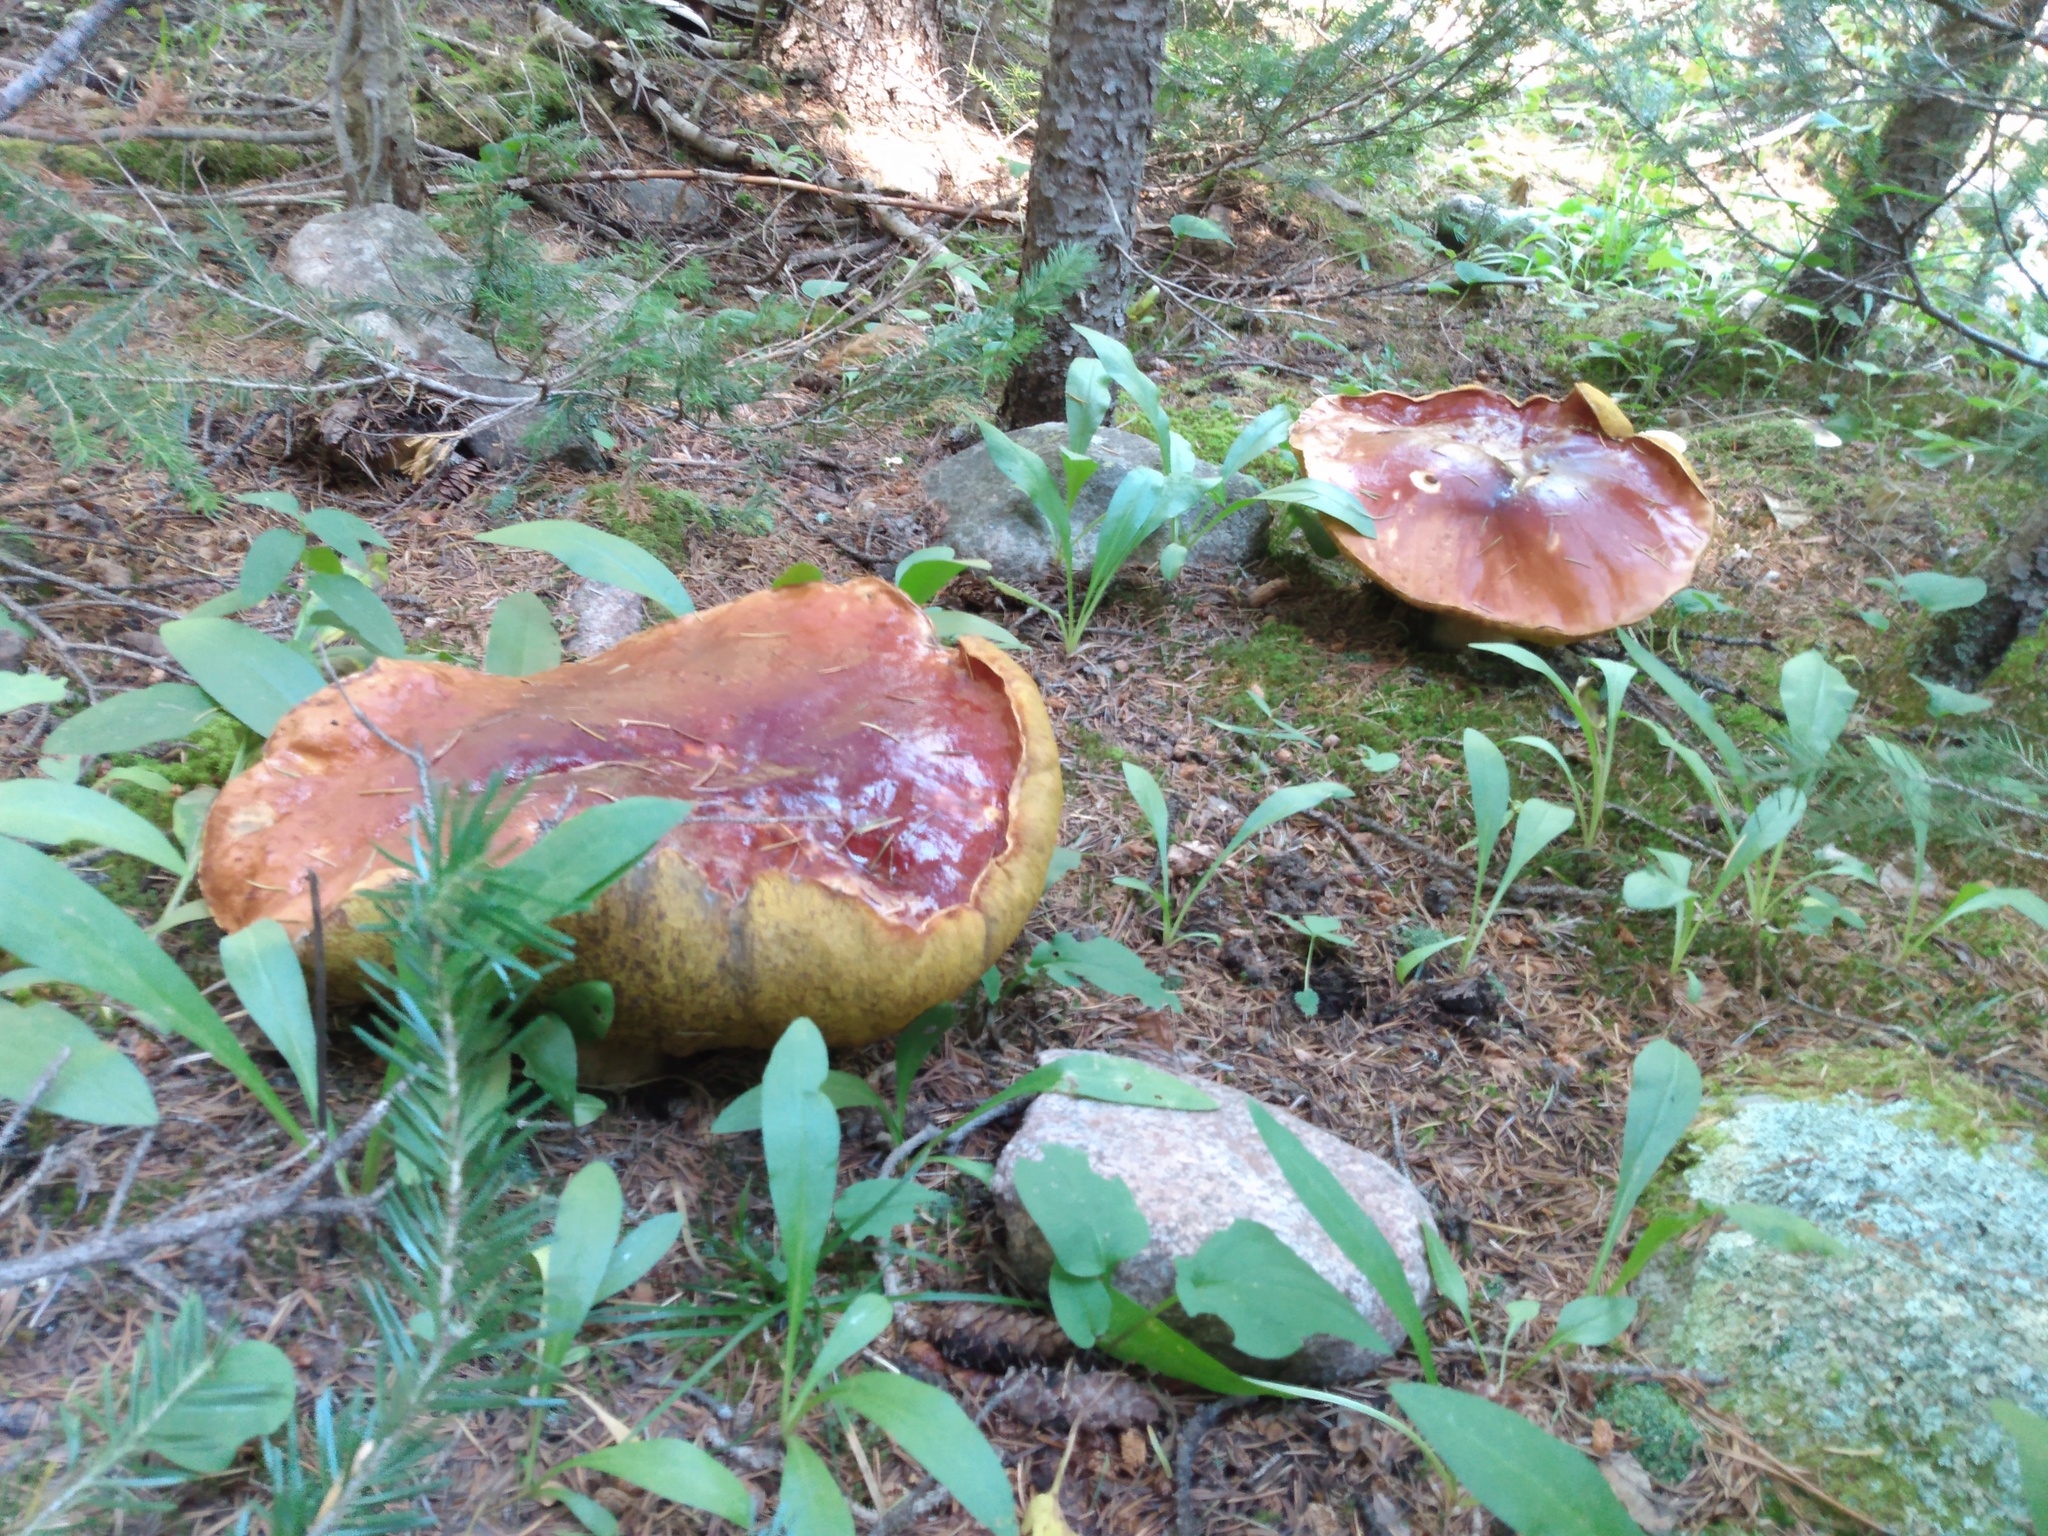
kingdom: Fungi
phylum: Basidiomycota
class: Agaricomycetes
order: Boletales
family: Boletaceae
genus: Boletus
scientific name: Boletus rubriceps
